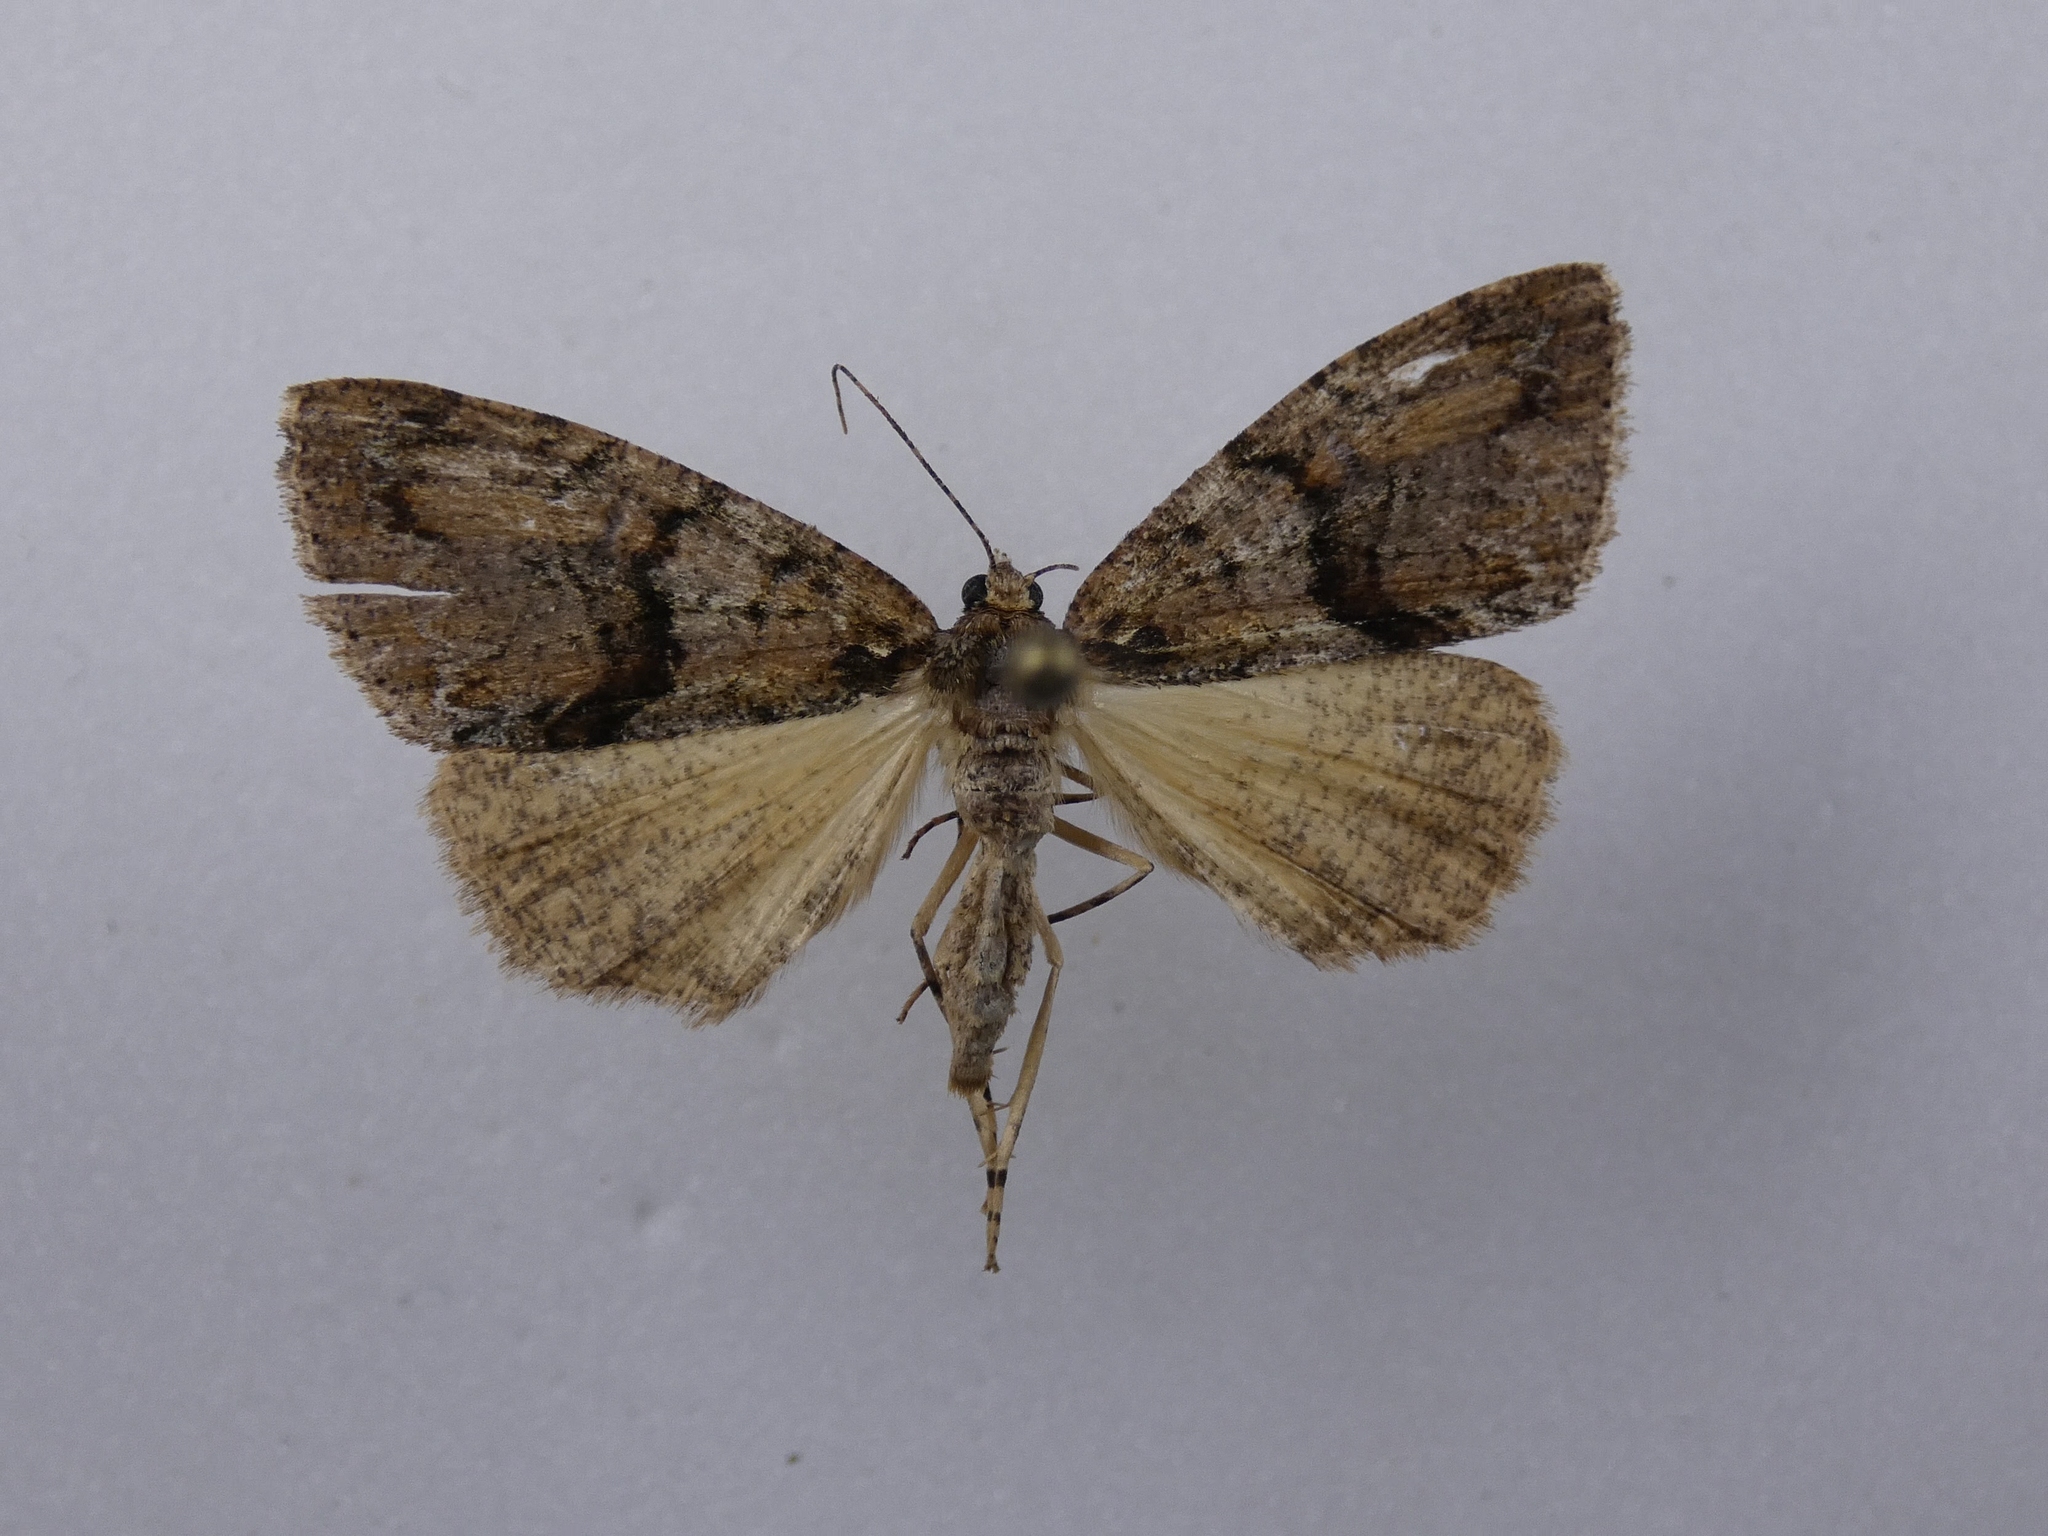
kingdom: Animalia
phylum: Arthropoda
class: Insecta
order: Lepidoptera
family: Geometridae
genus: Pseudocoremia
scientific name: Pseudocoremia suavis
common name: Common forest looper
